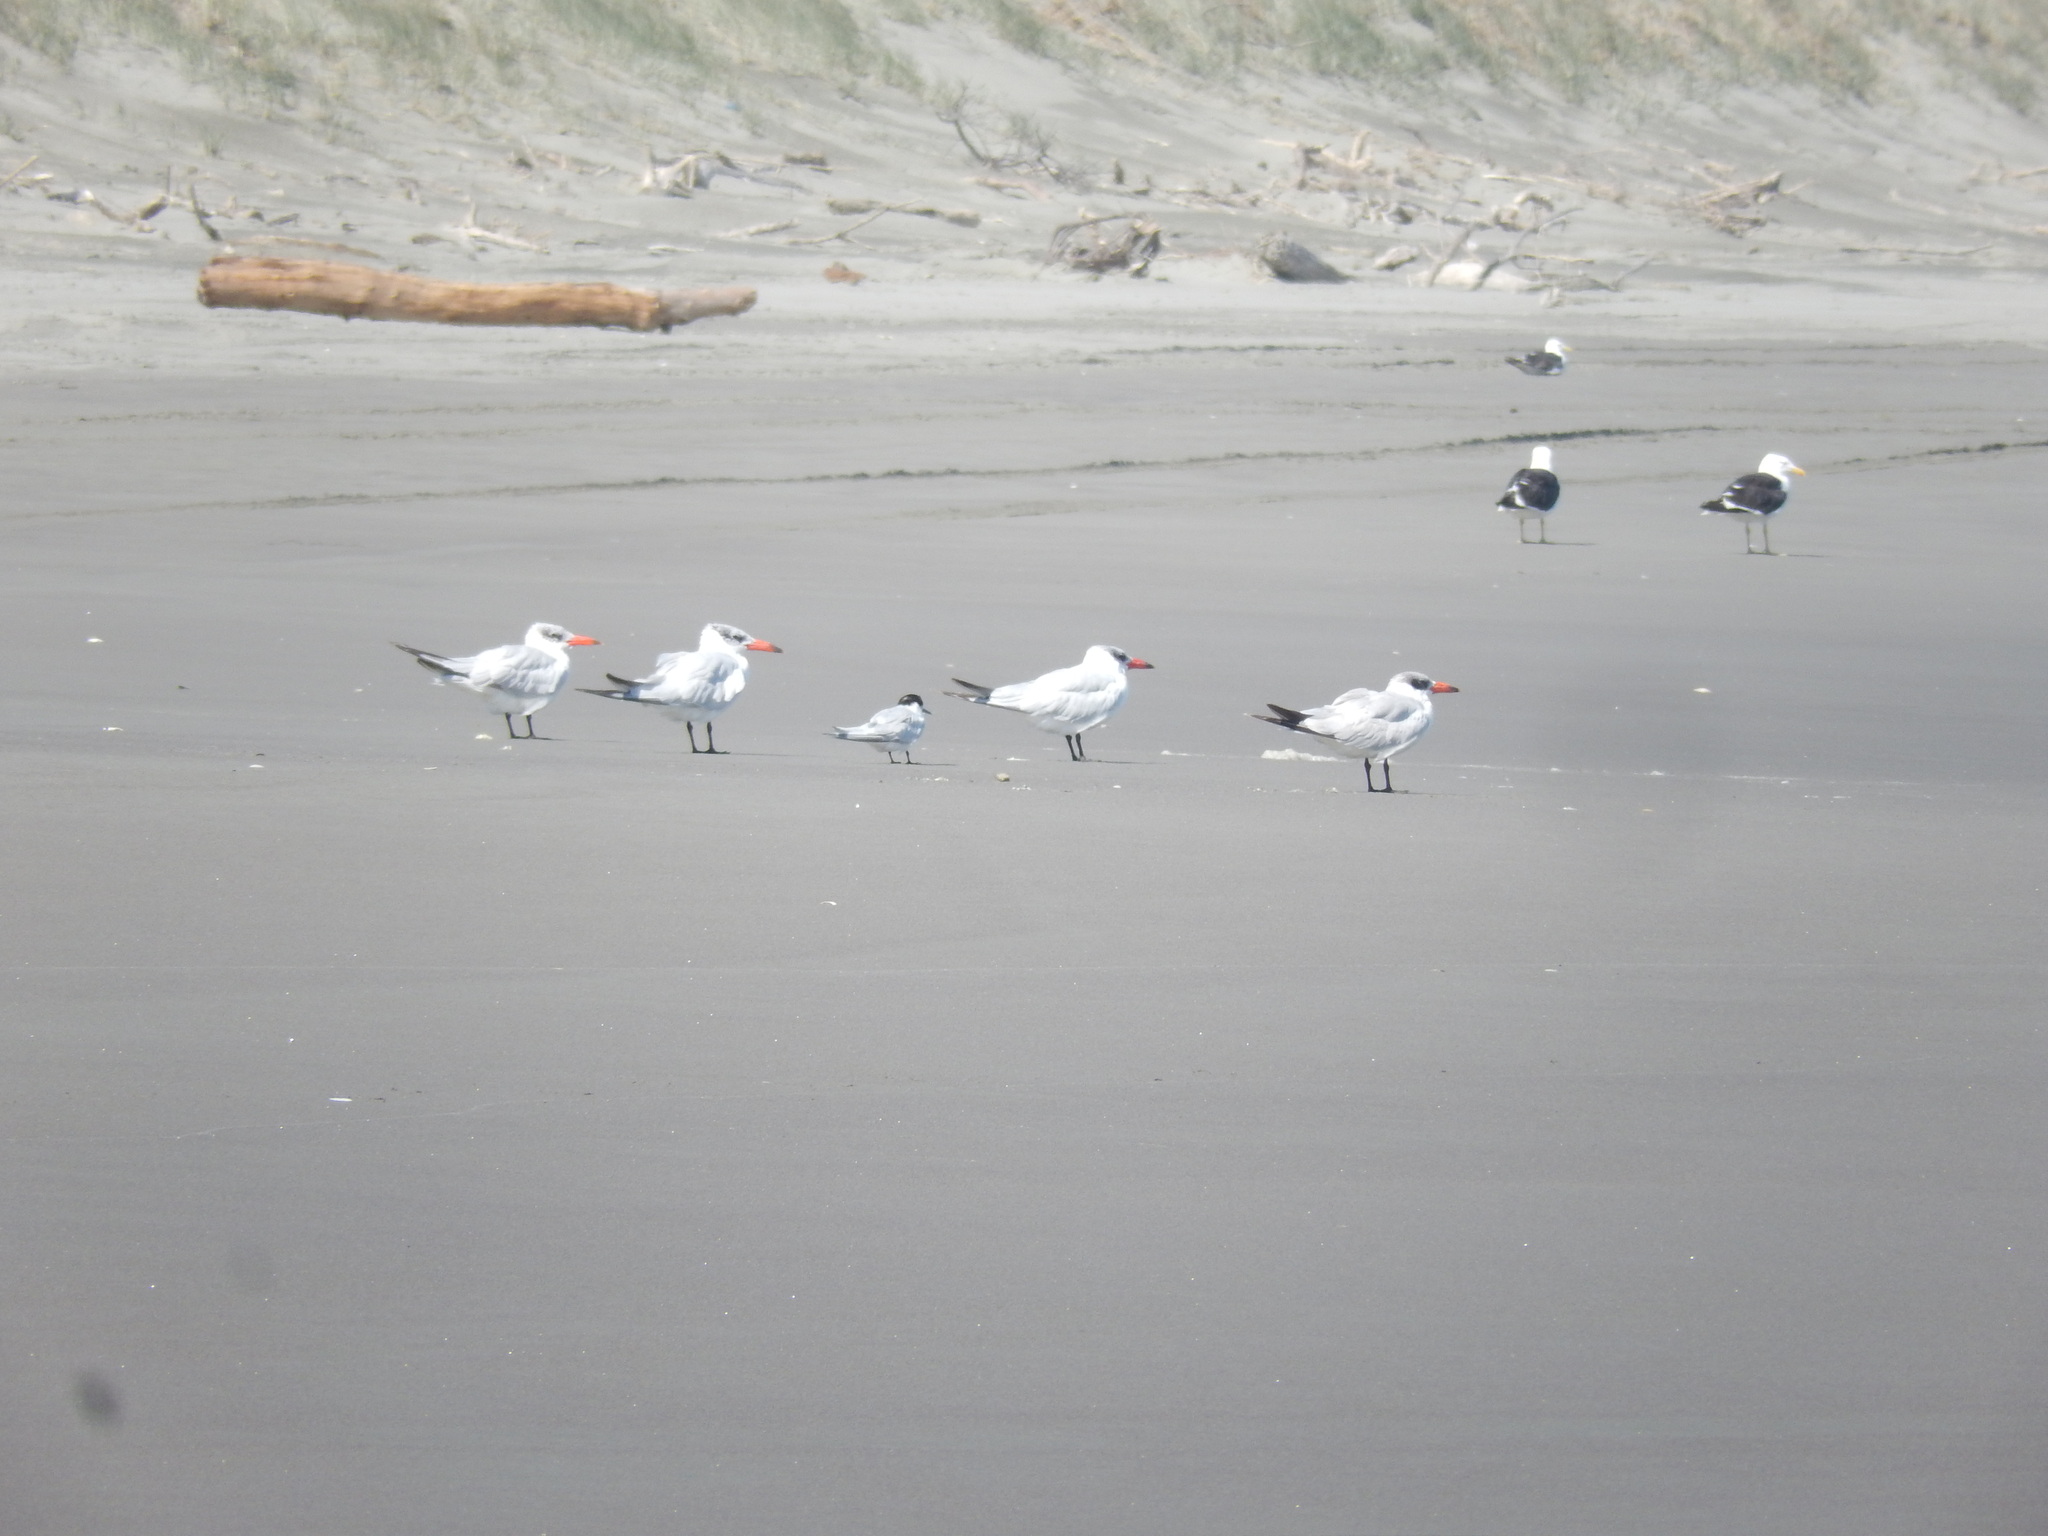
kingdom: Animalia
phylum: Chordata
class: Aves
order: Charadriiformes
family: Laridae
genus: Sterna
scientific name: Sterna striata
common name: White-fronted tern
